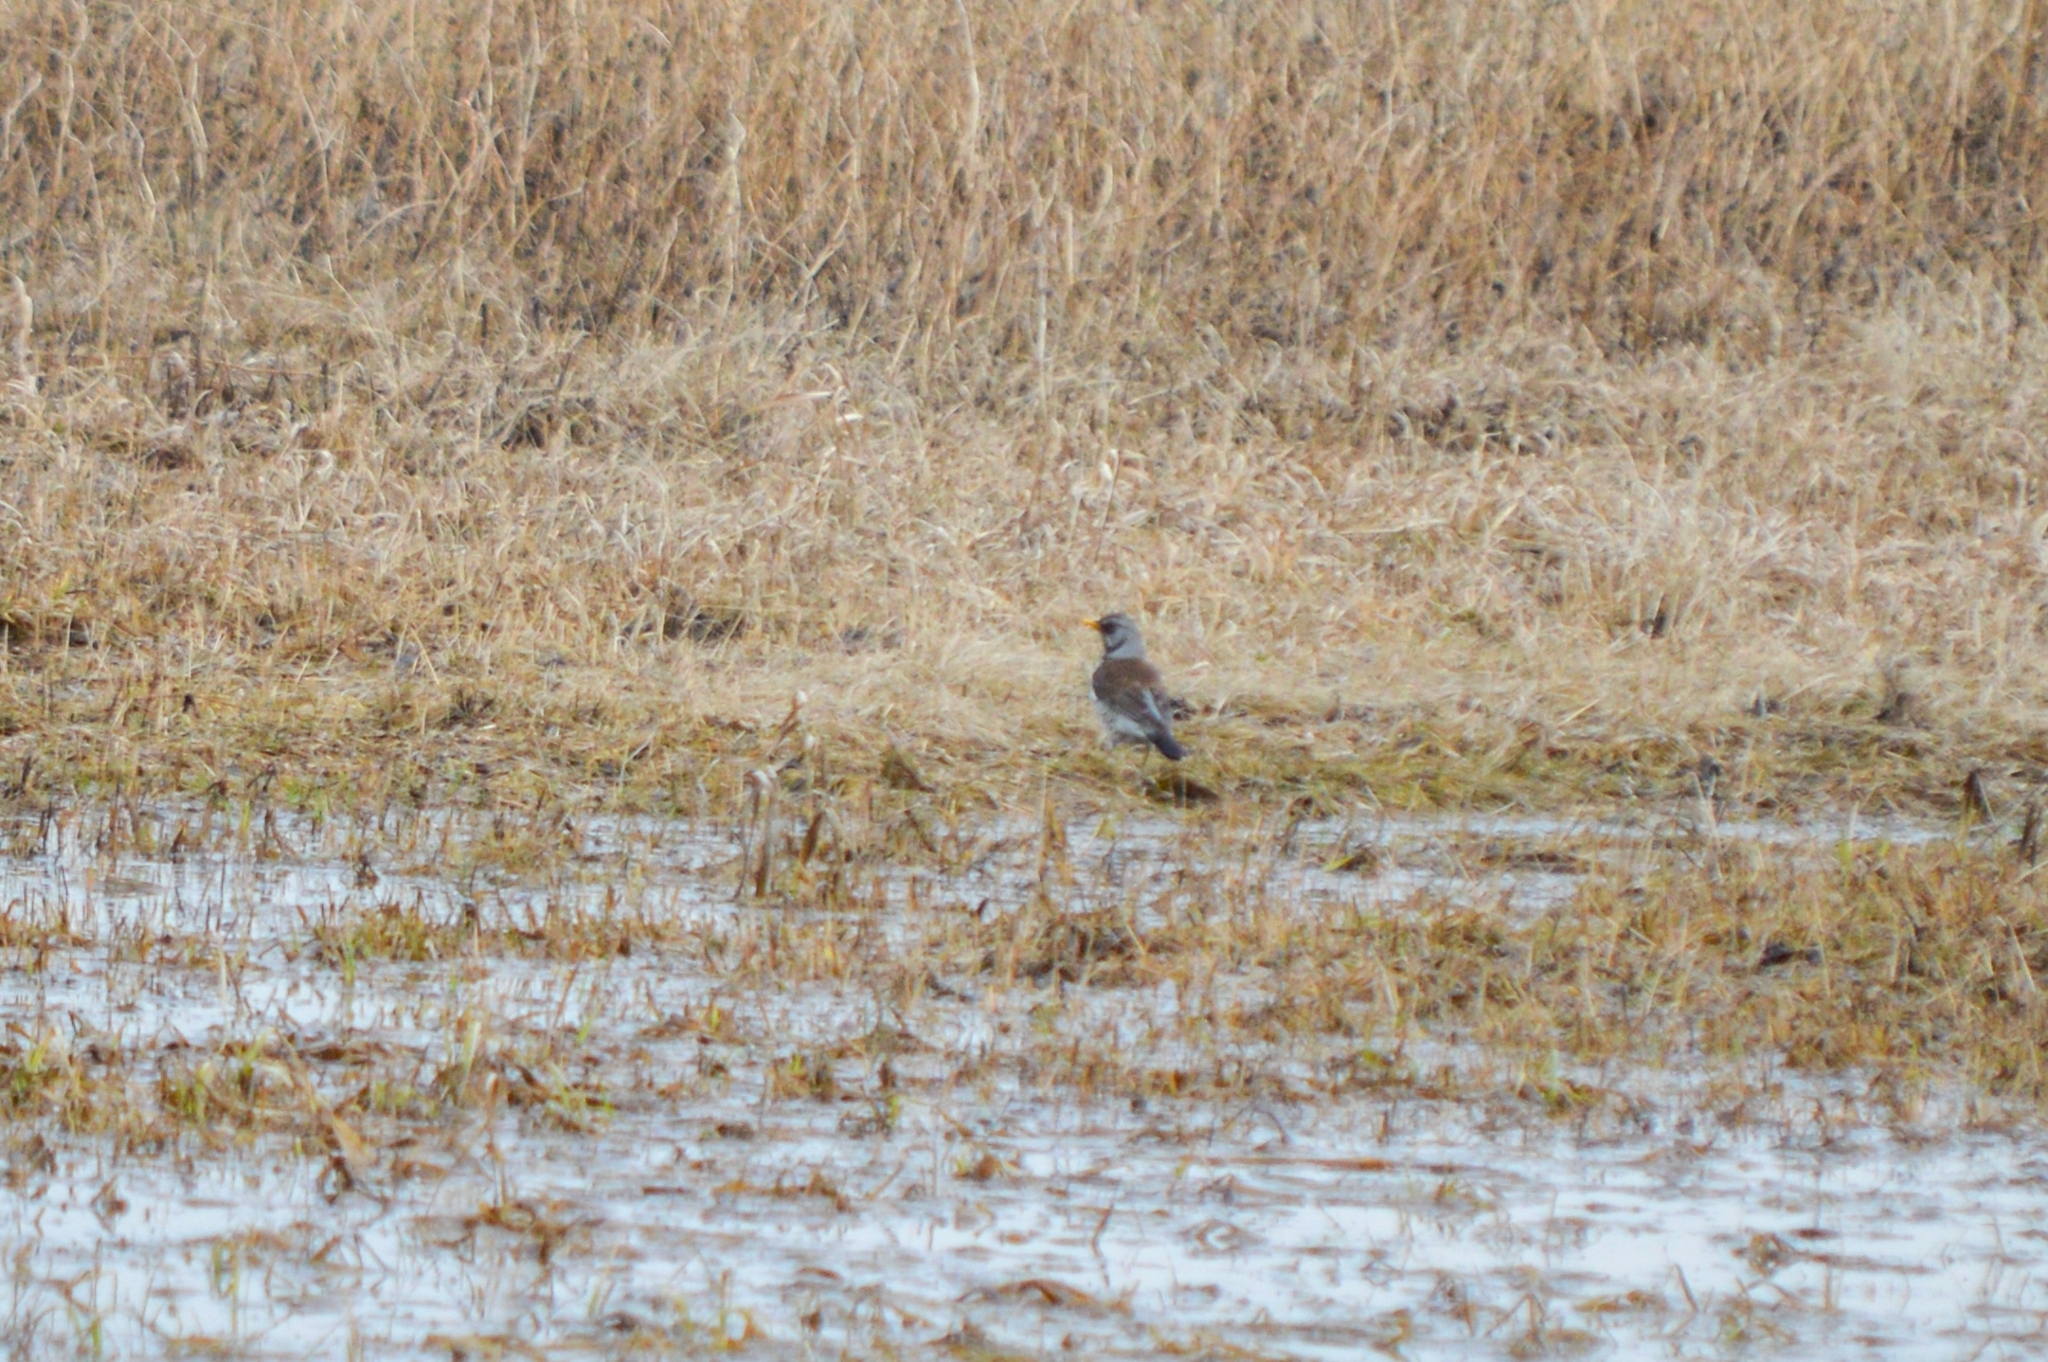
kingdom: Animalia
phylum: Chordata
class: Aves
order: Passeriformes
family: Turdidae
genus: Turdus
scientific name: Turdus pilaris
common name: Fieldfare
